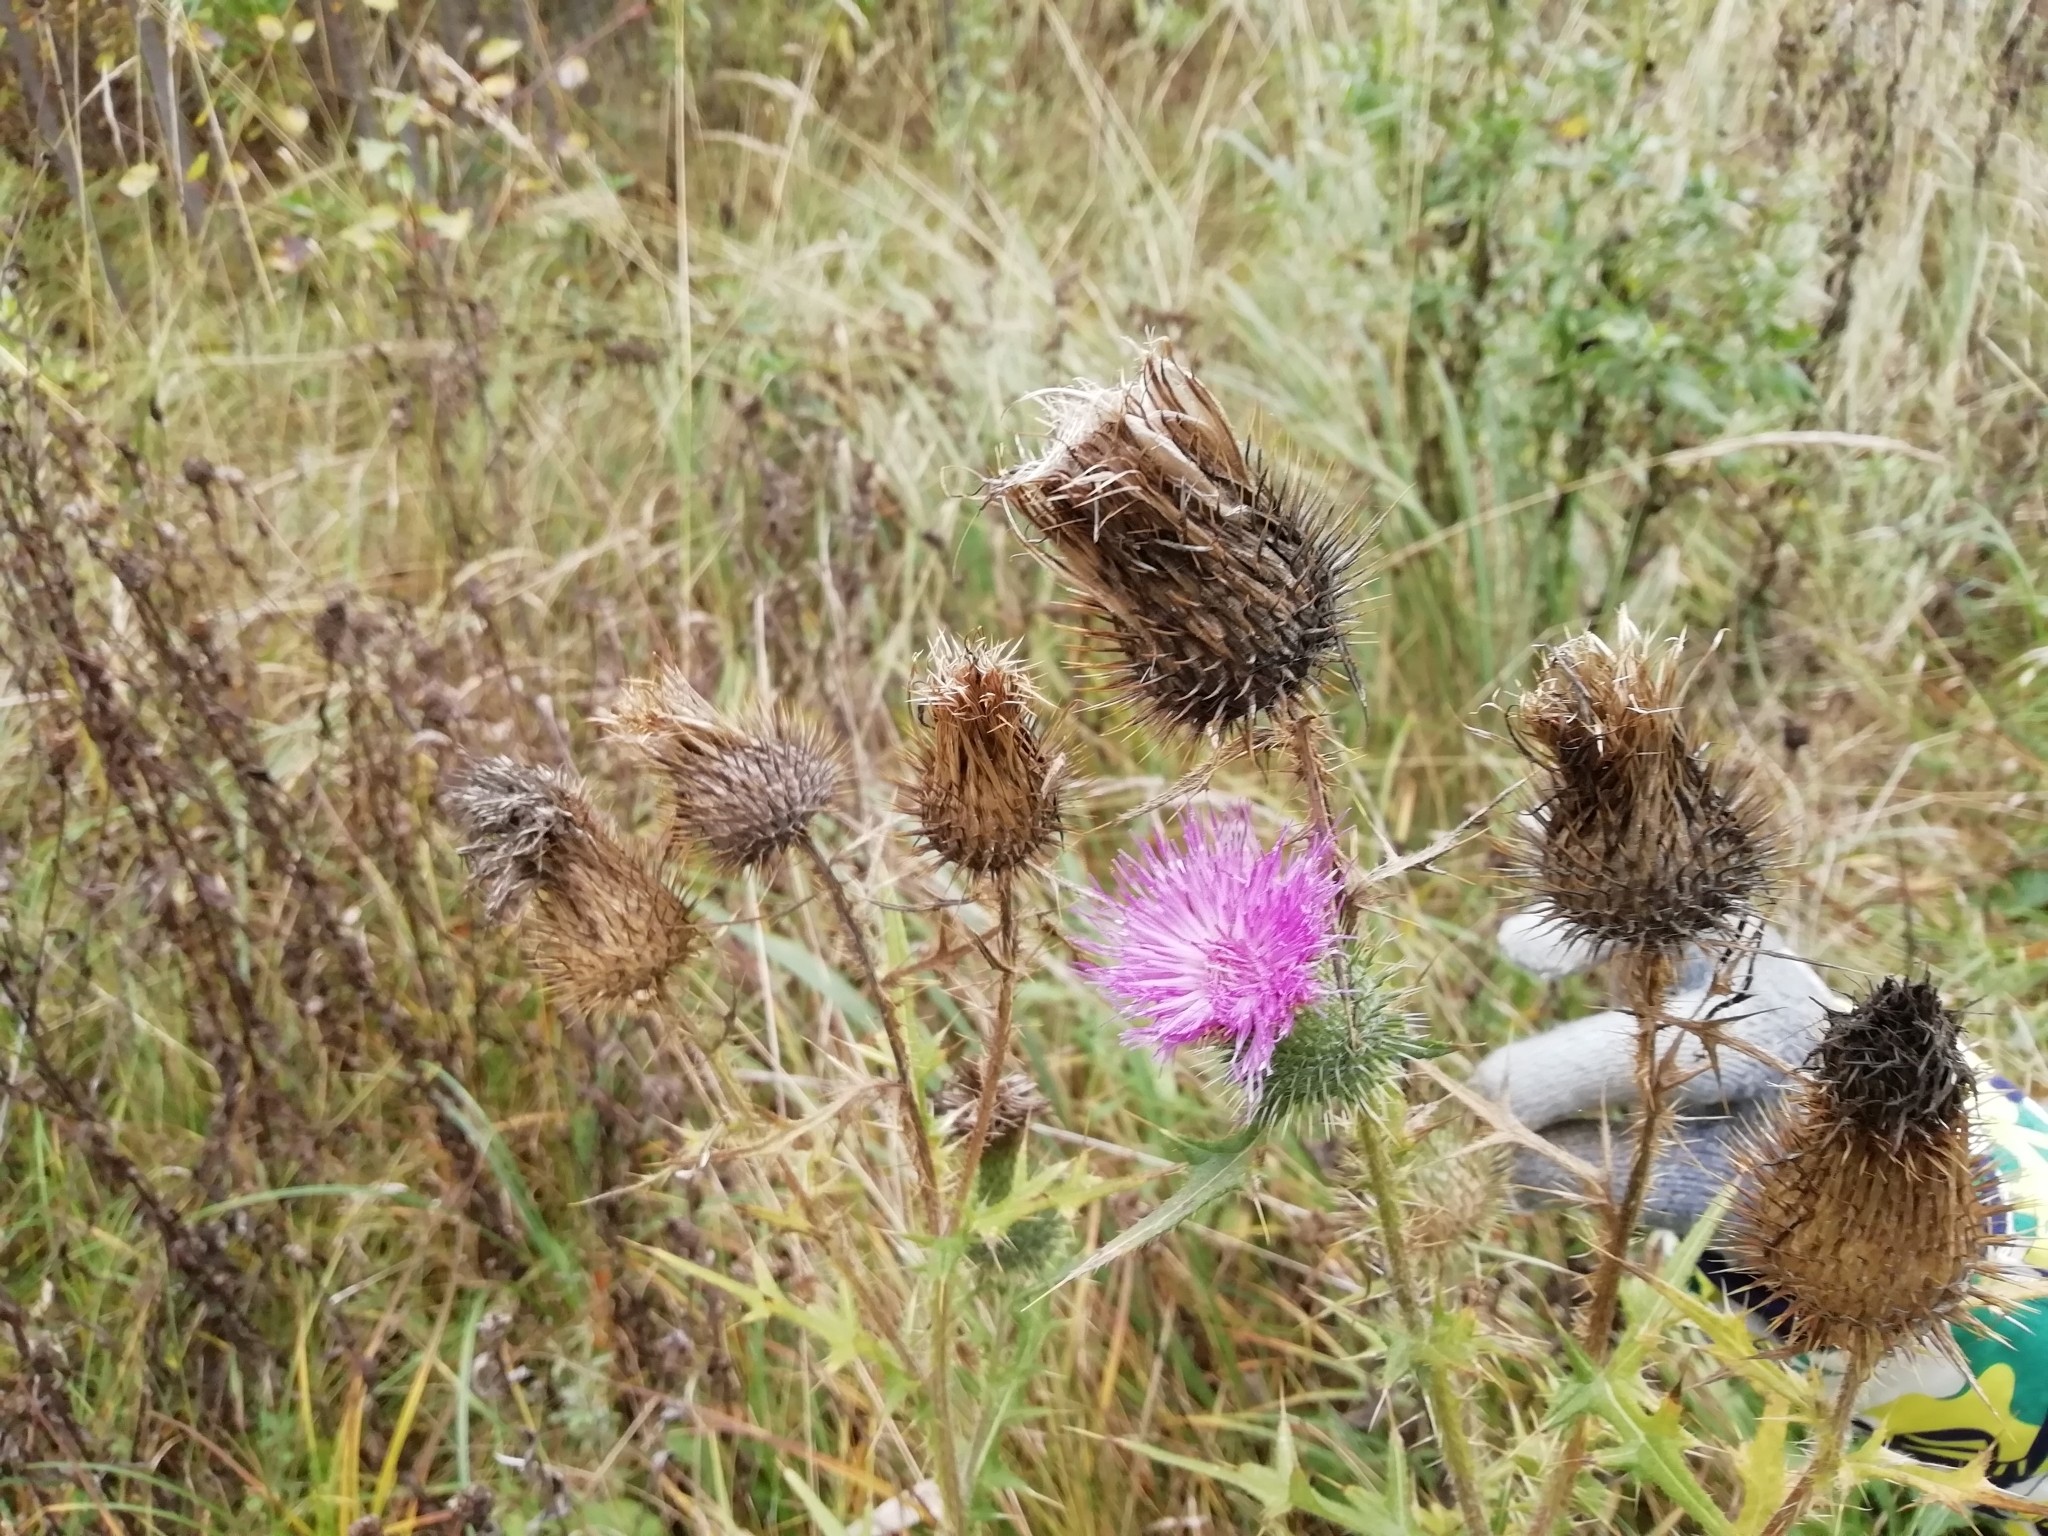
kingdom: Plantae
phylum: Tracheophyta
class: Magnoliopsida
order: Asterales
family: Asteraceae
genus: Cirsium
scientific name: Cirsium vulgare
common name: Bull thistle
